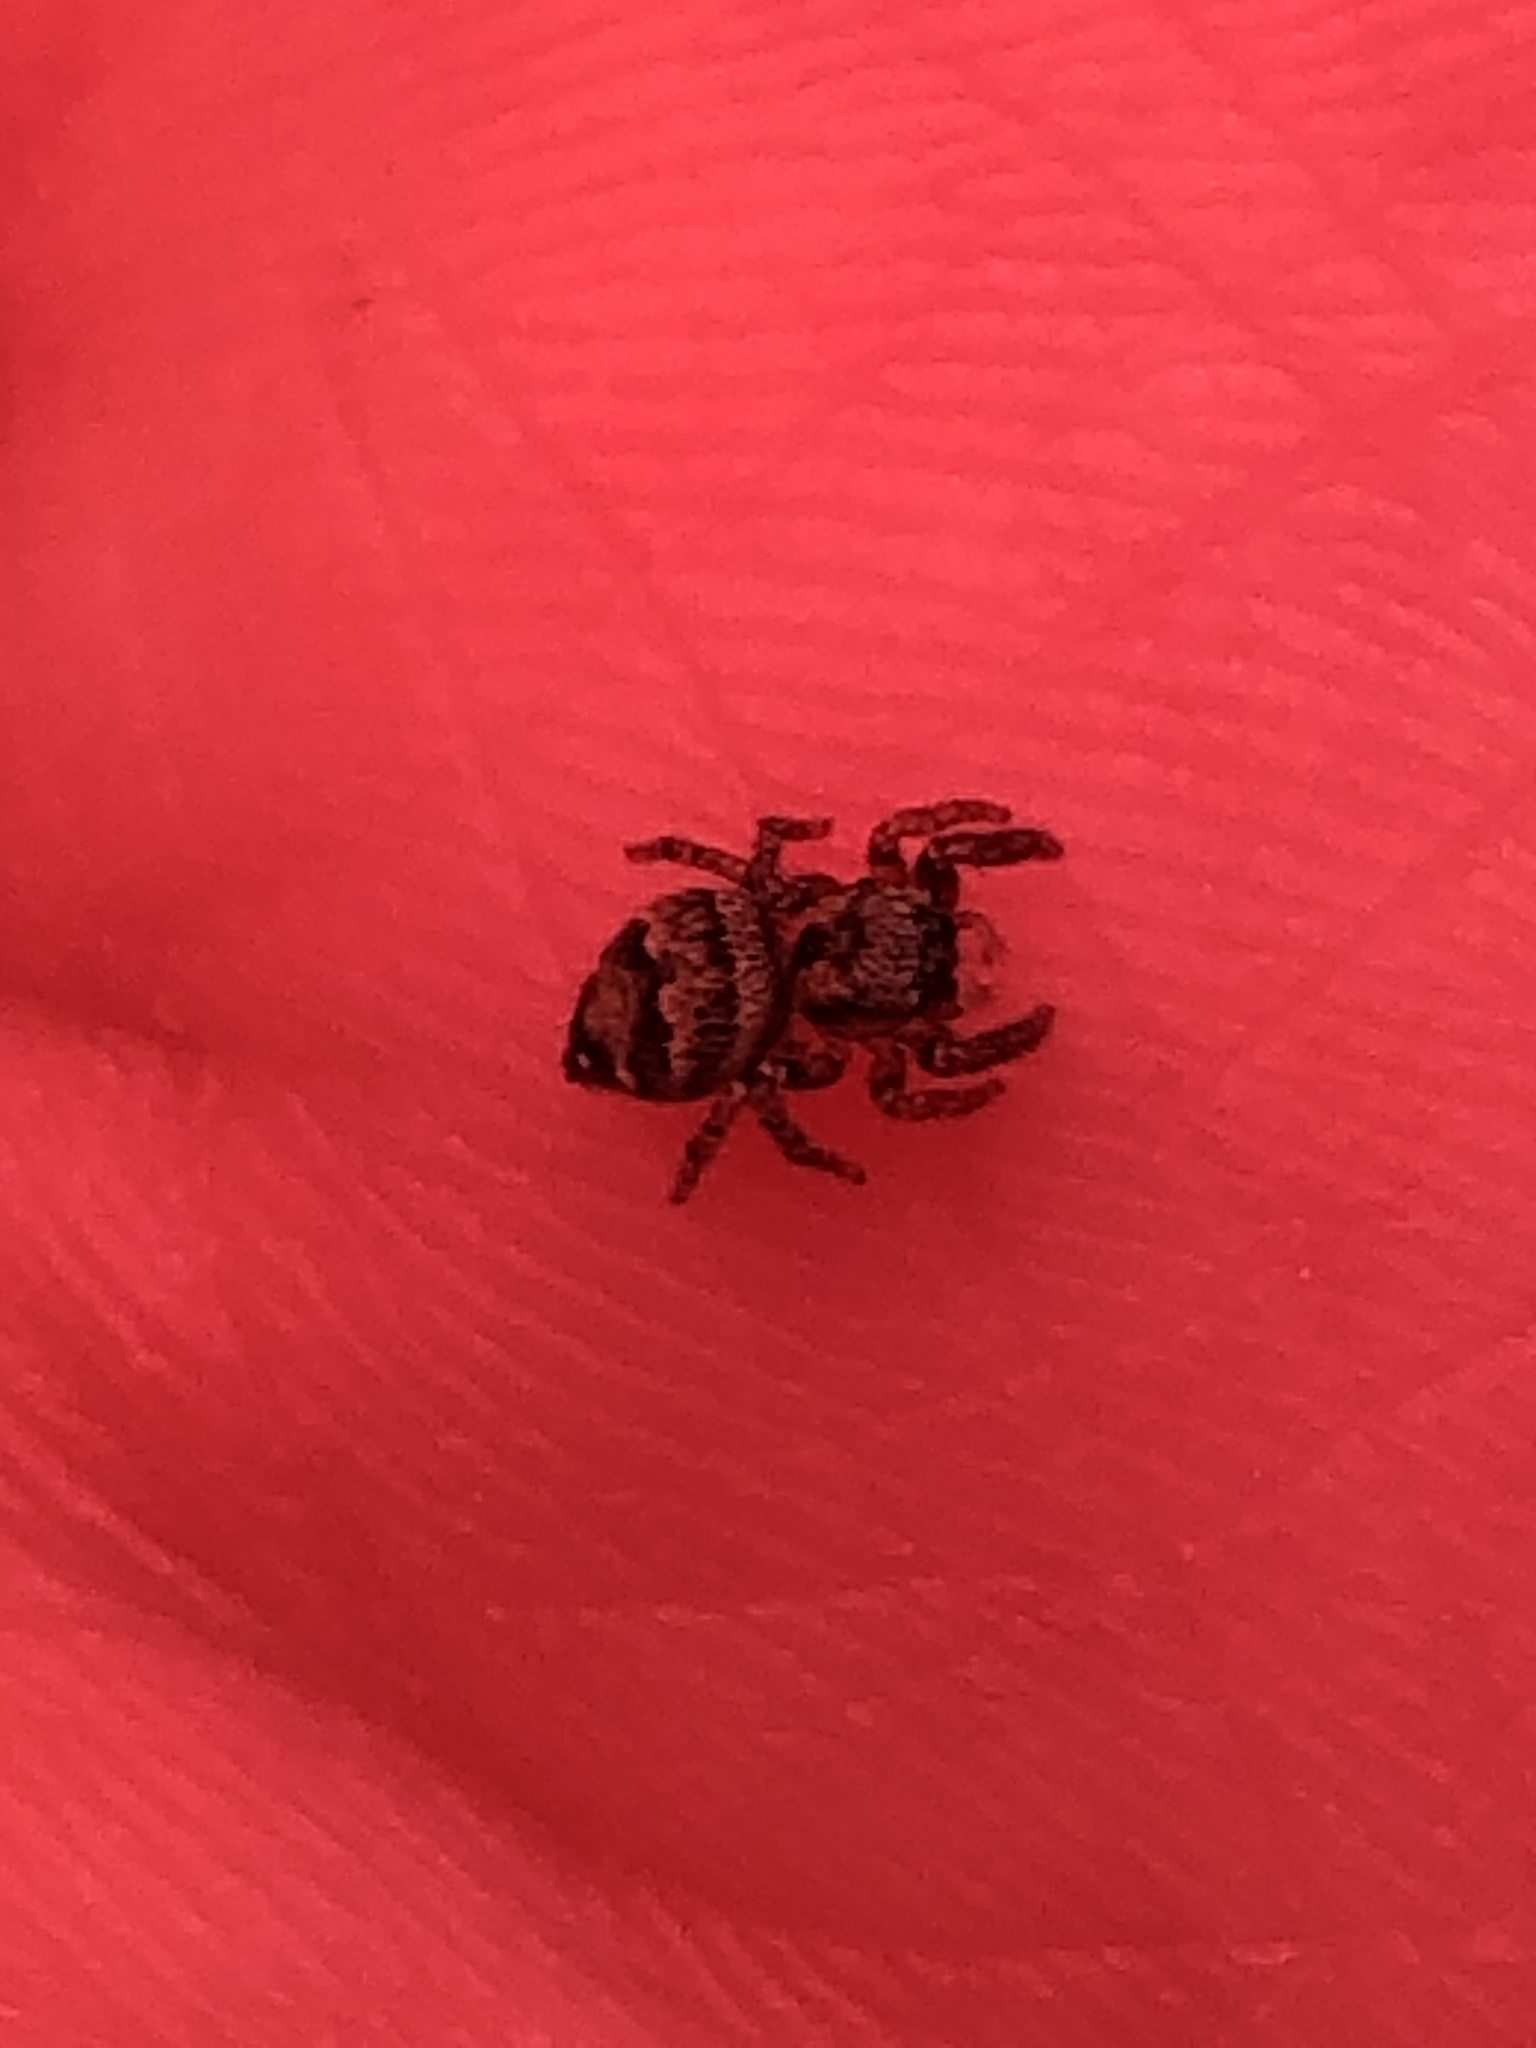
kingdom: Animalia
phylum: Arthropoda
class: Arachnida
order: Araneae
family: Salticidae
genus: Habronattus
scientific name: Habronattus geronimoi
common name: Jumping spiders
